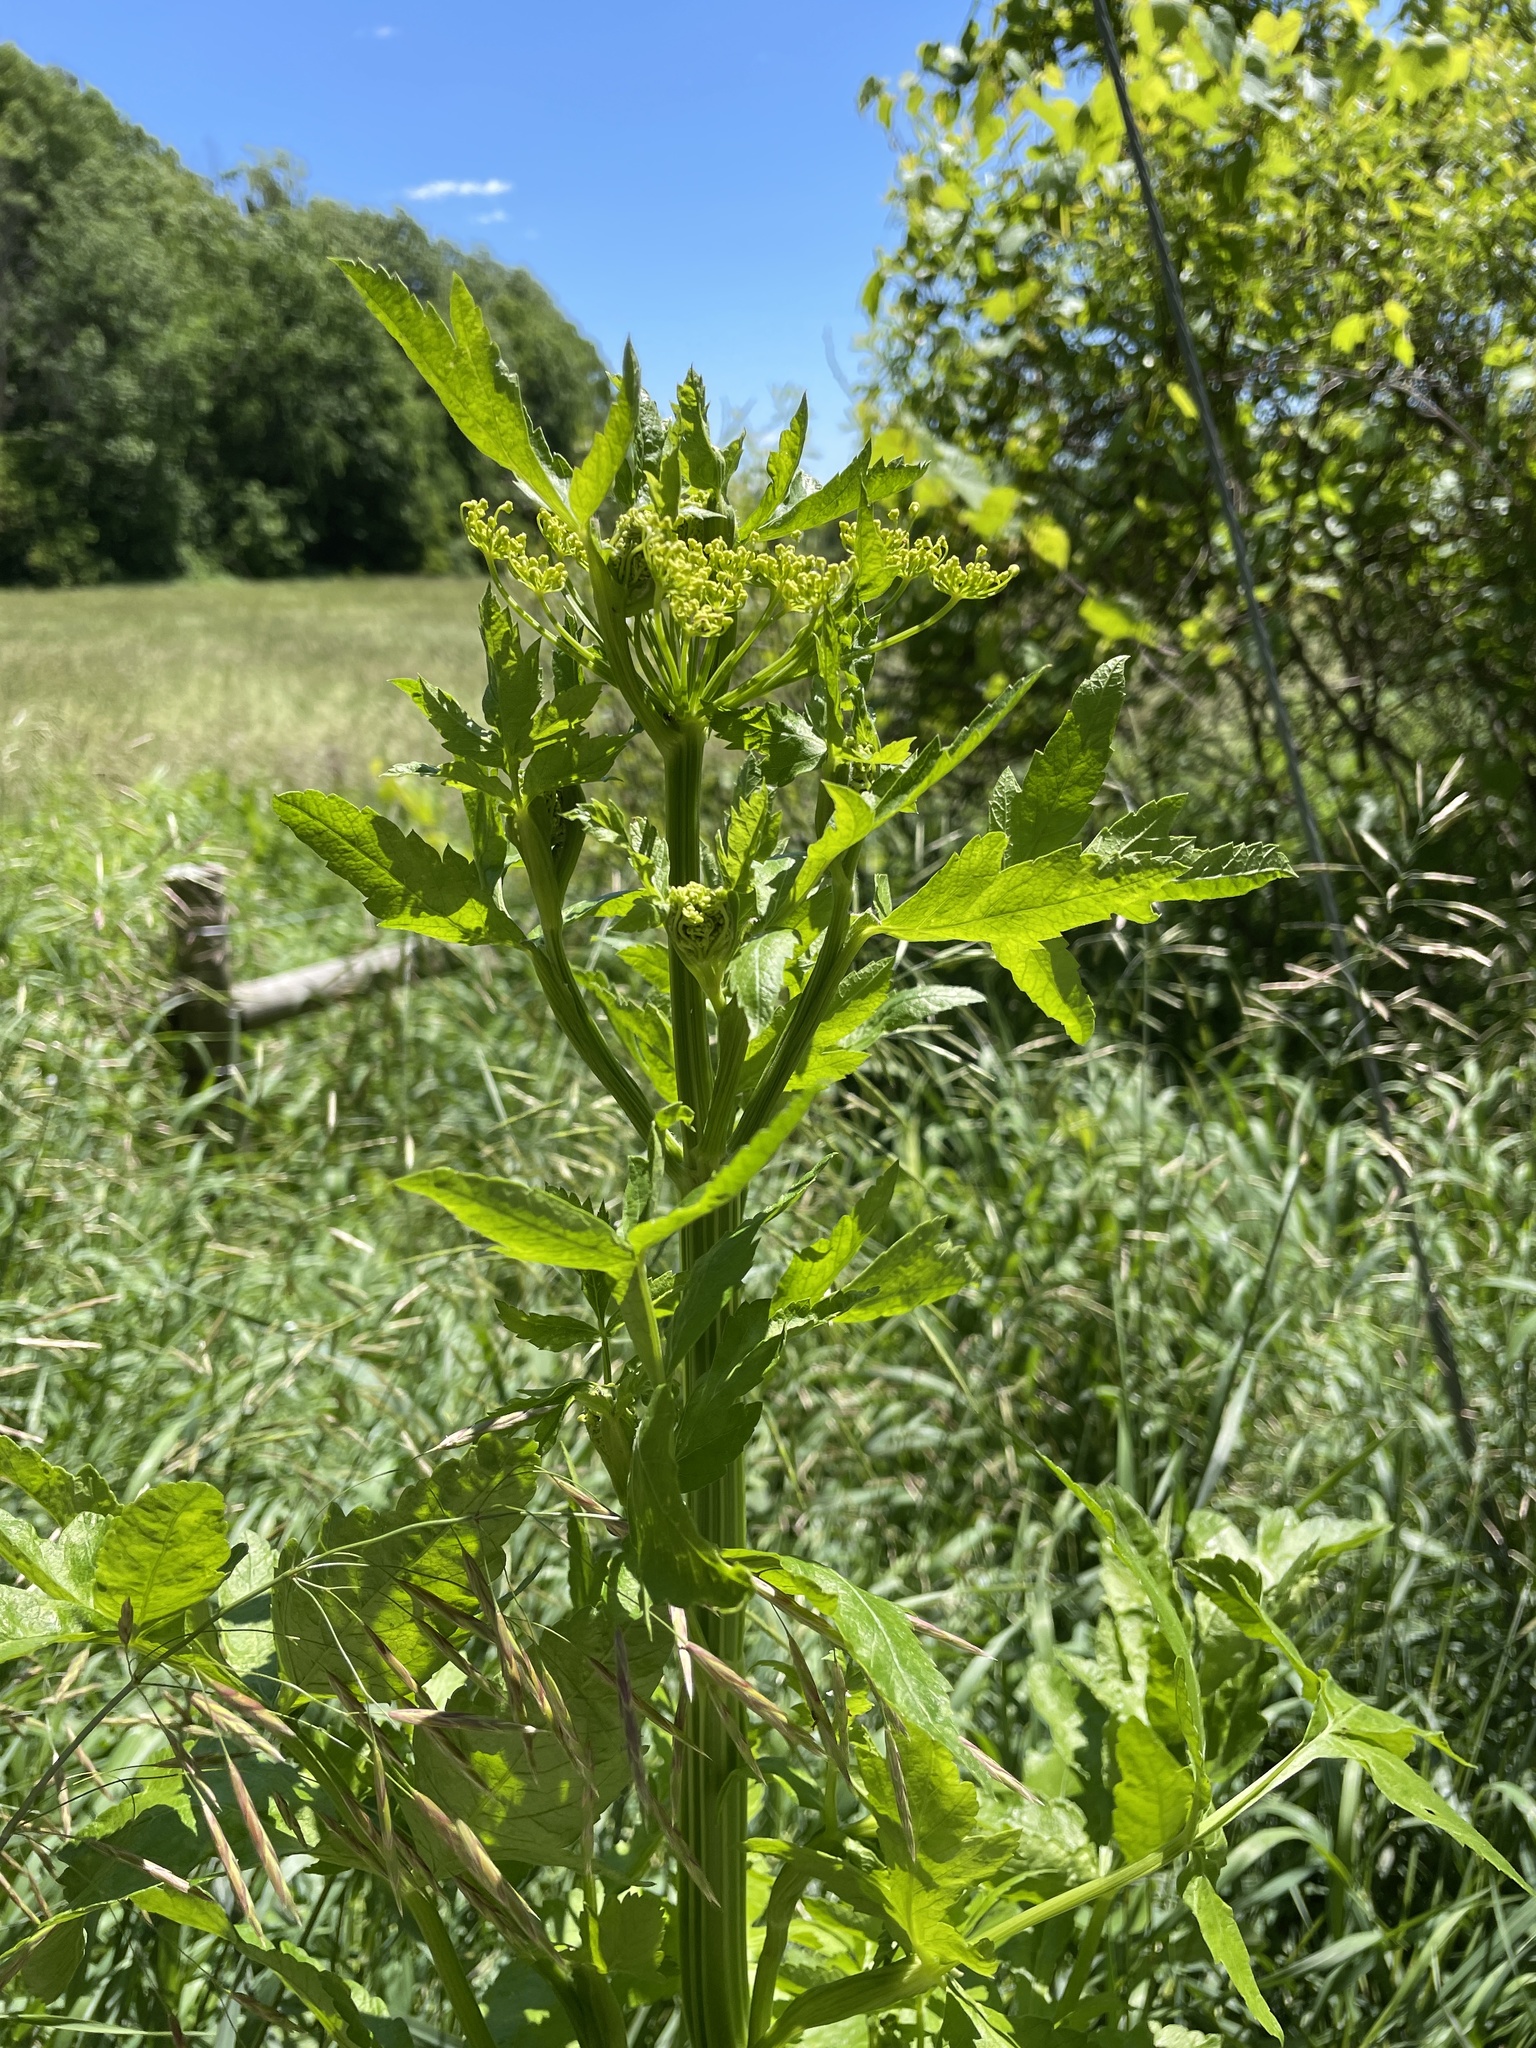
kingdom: Plantae
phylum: Tracheophyta
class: Magnoliopsida
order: Apiales
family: Apiaceae
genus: Pastinaca
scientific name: Pastinaca sativa
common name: Wild parsnip
